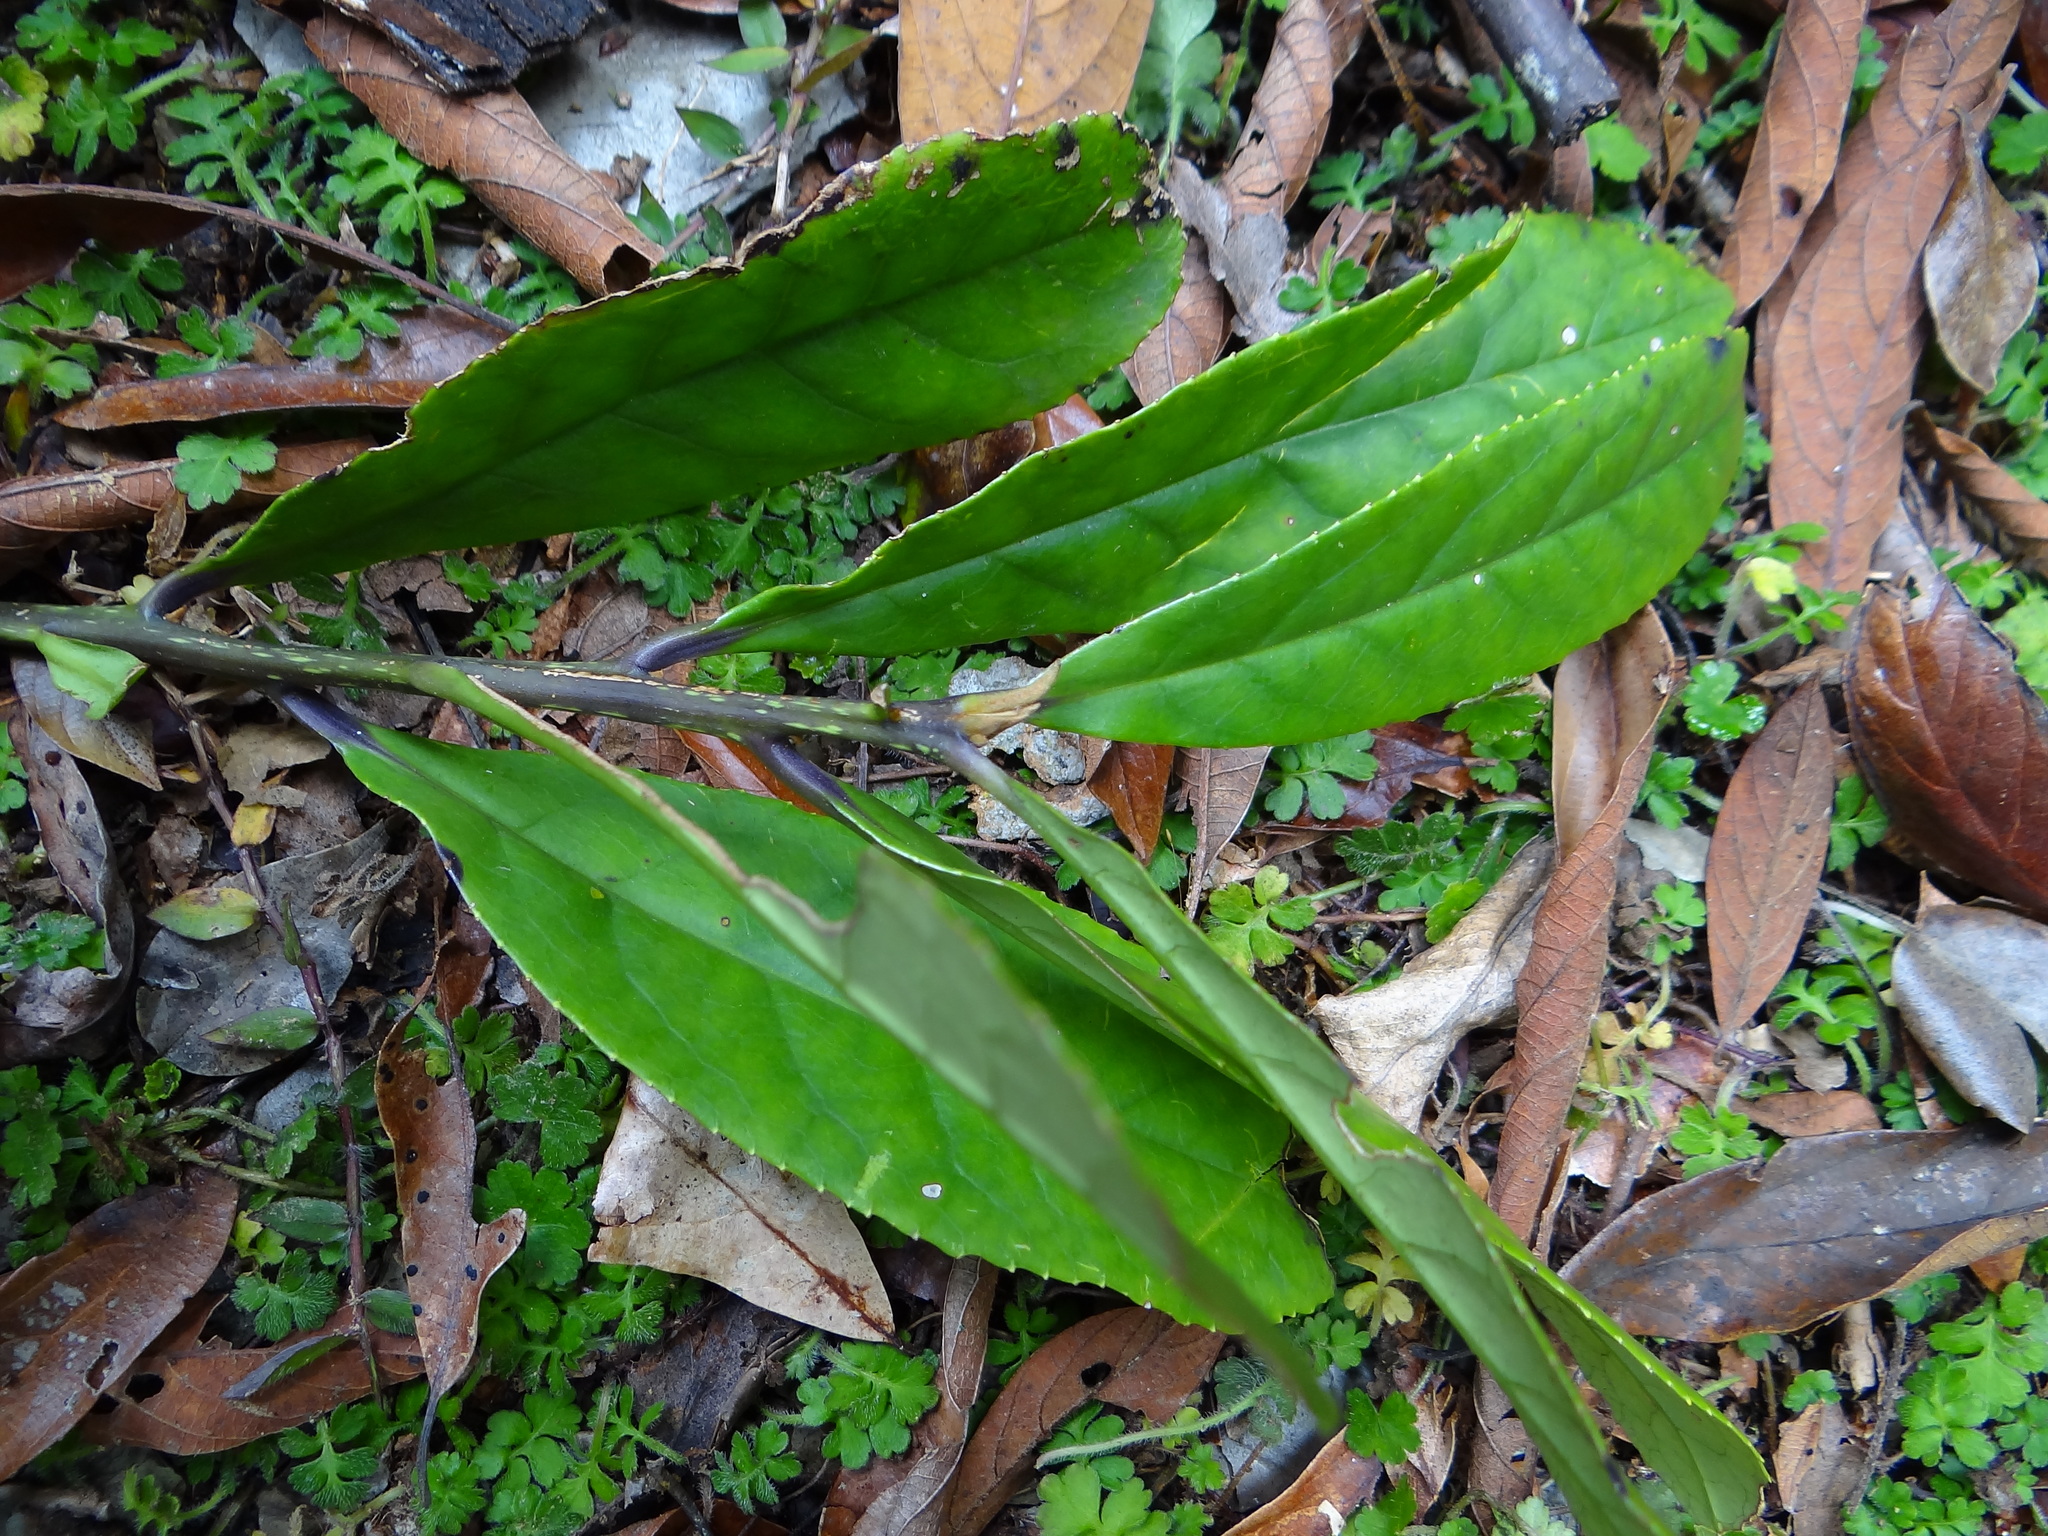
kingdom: Plantae
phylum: Tracheophyta
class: Magnoliopsida
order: Ericales
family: Symplocaceae
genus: Symplocos
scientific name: Symplocos acuminata
